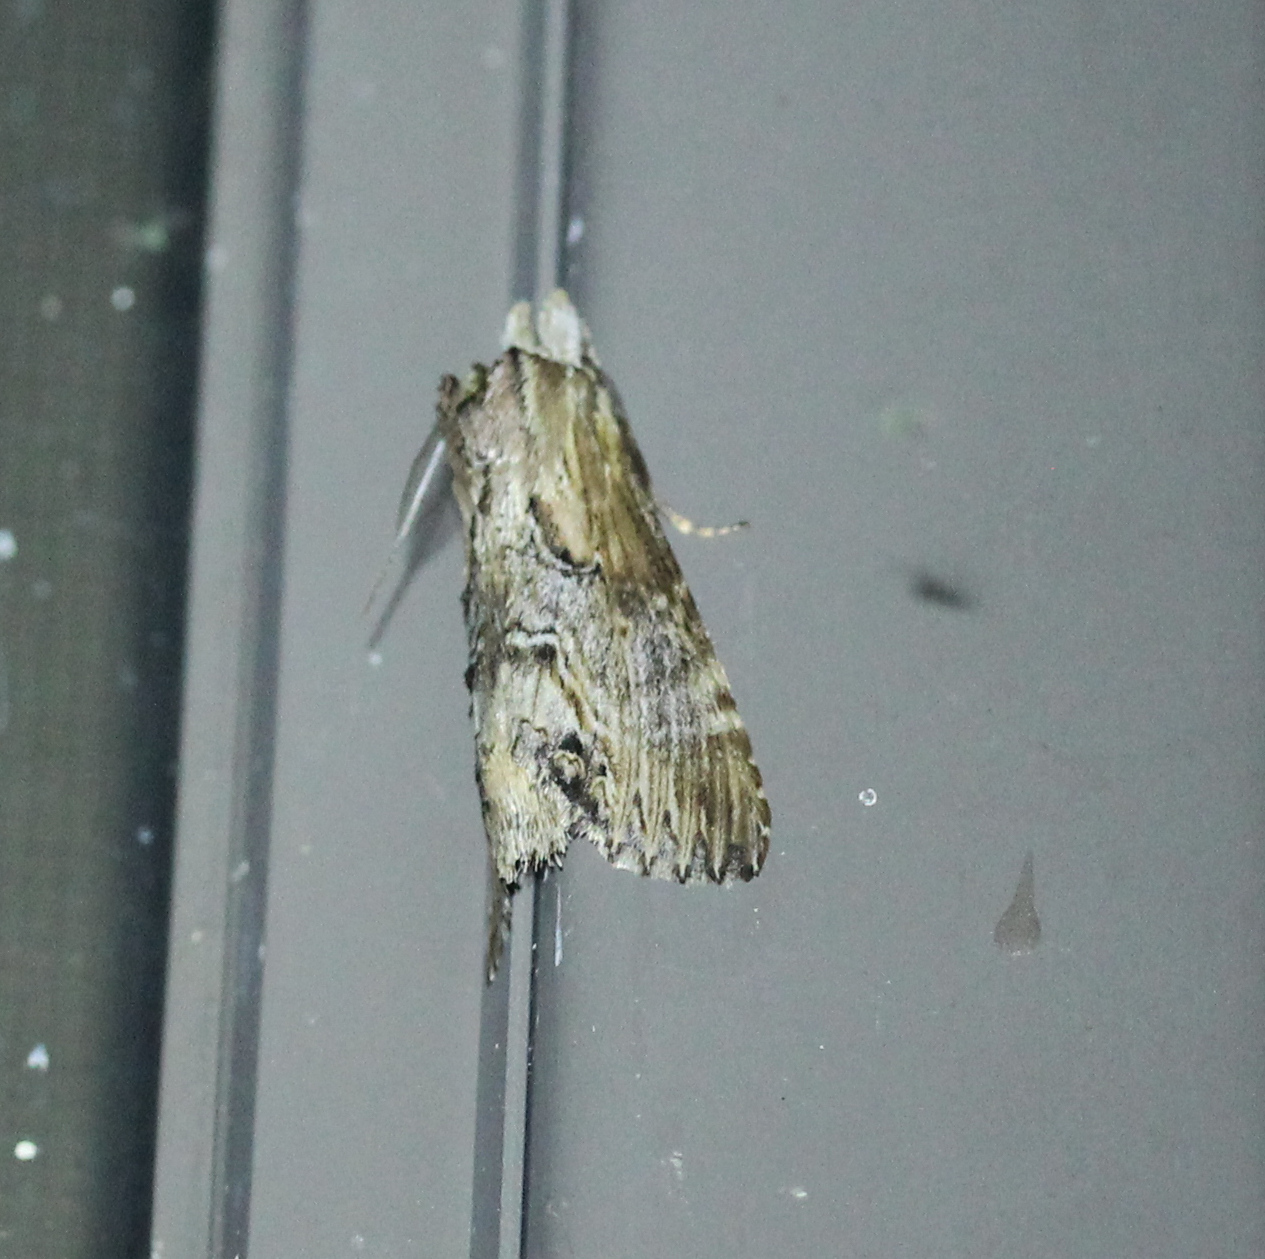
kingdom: Animalia
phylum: Arthropoda
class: Insecta
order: Lepidoptera
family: Notodontidae
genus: Dasylophia
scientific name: Dasylophia thyatiroides
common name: Gray-patched prominent
